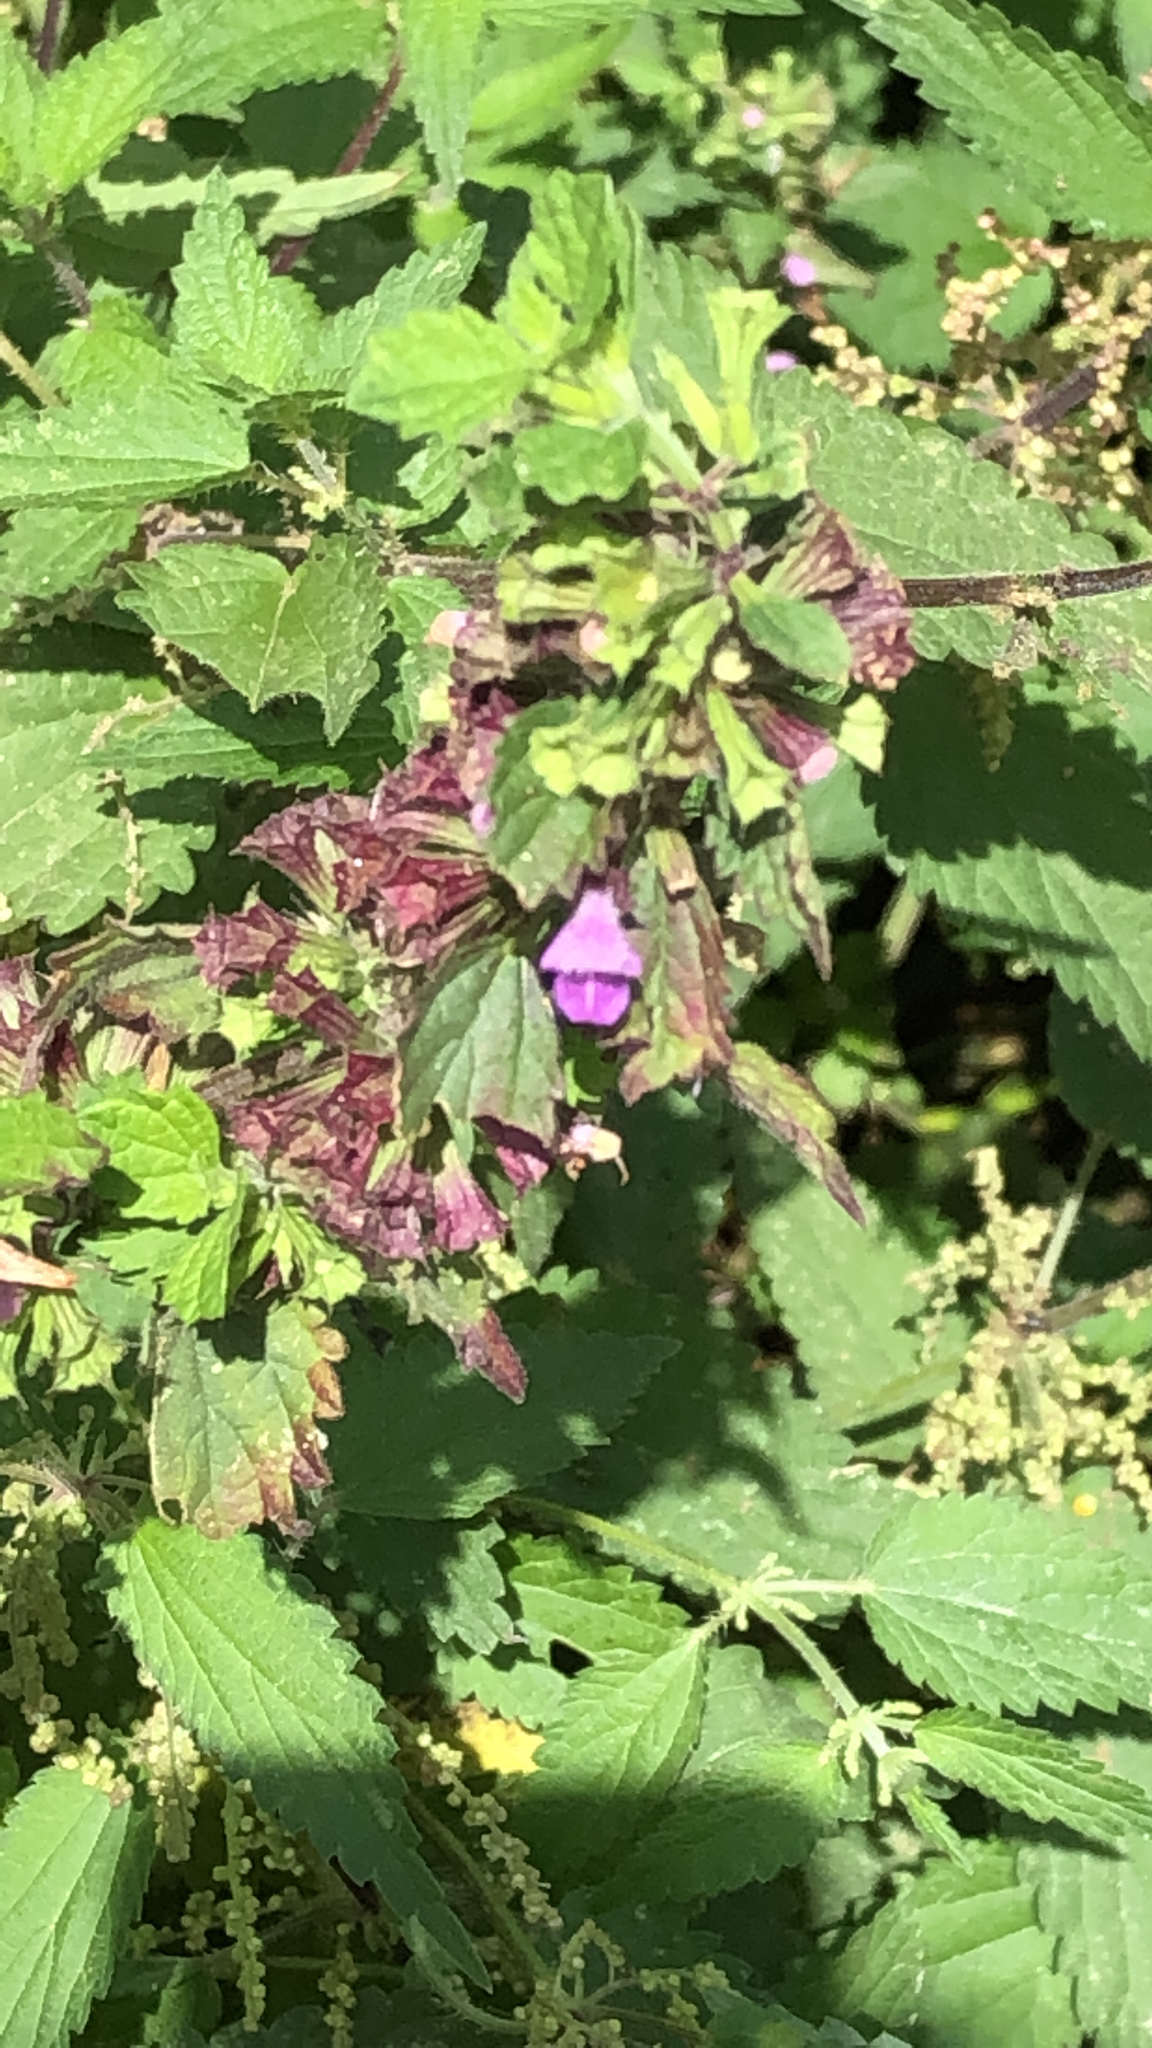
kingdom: Plantae
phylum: Tracheophyta
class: Magnoliopsida
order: Lamiales
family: Lamiaceae
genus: Ballota
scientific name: Ballota nigra
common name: Black horehound
